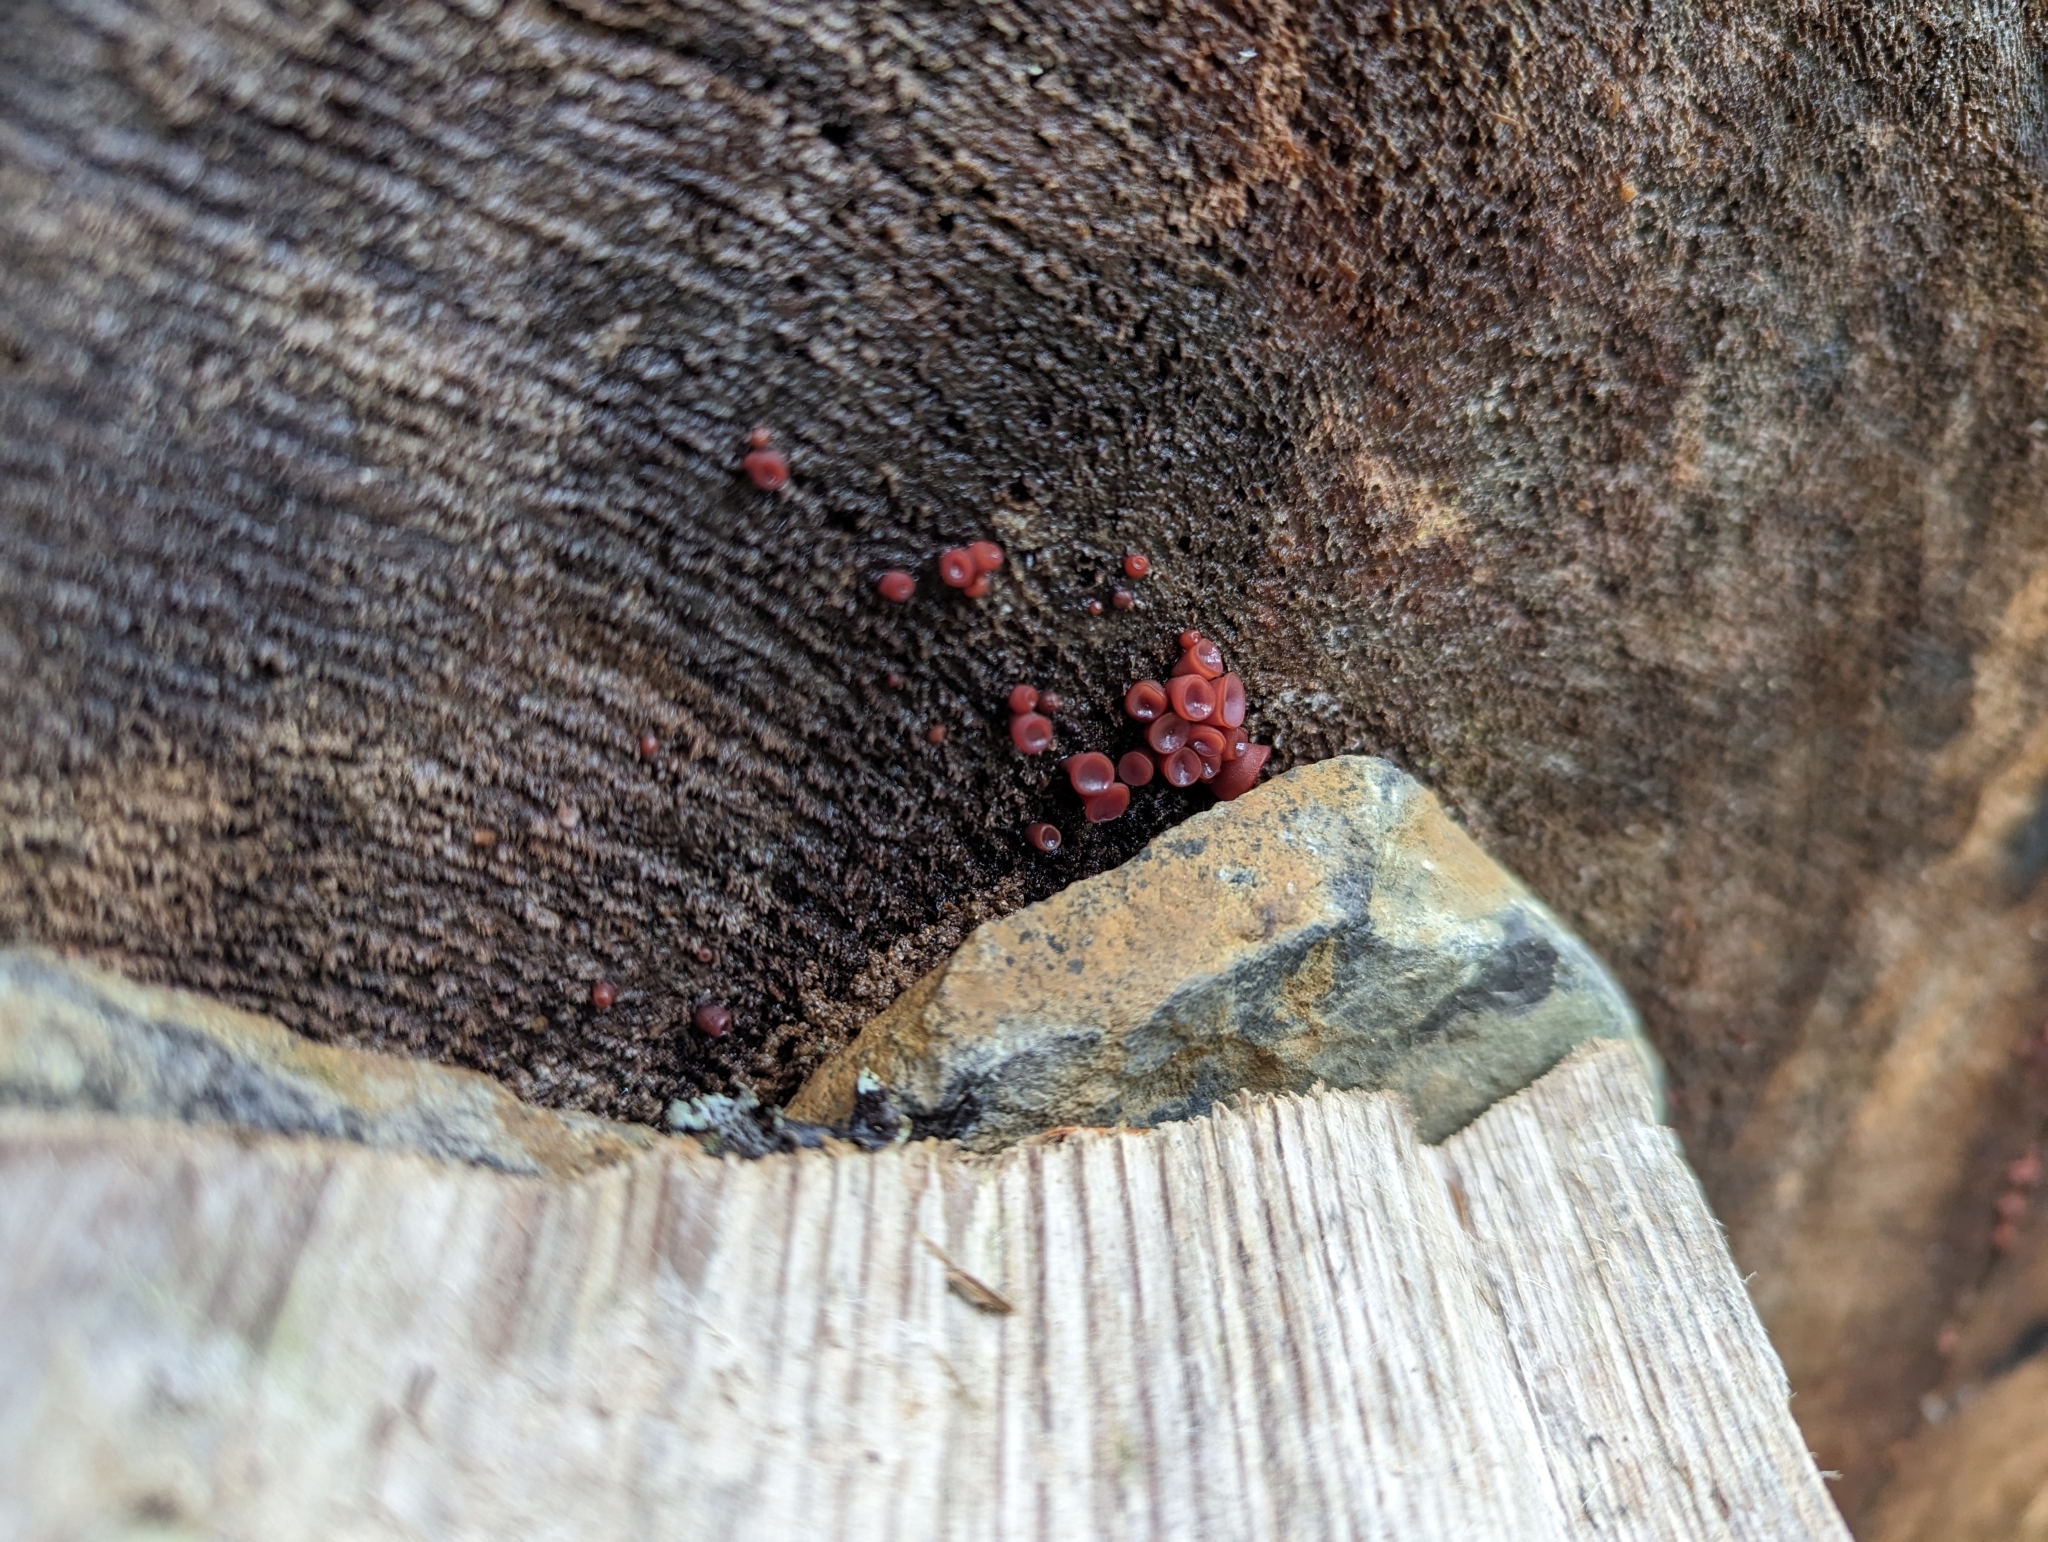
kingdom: Fungi
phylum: Ascomycota
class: Leotiomycetes
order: Helotiales
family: Gelatinodiscaceae
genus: Ascocoryne
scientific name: Ascocoryne sarcoides
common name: Purple jellydisc
